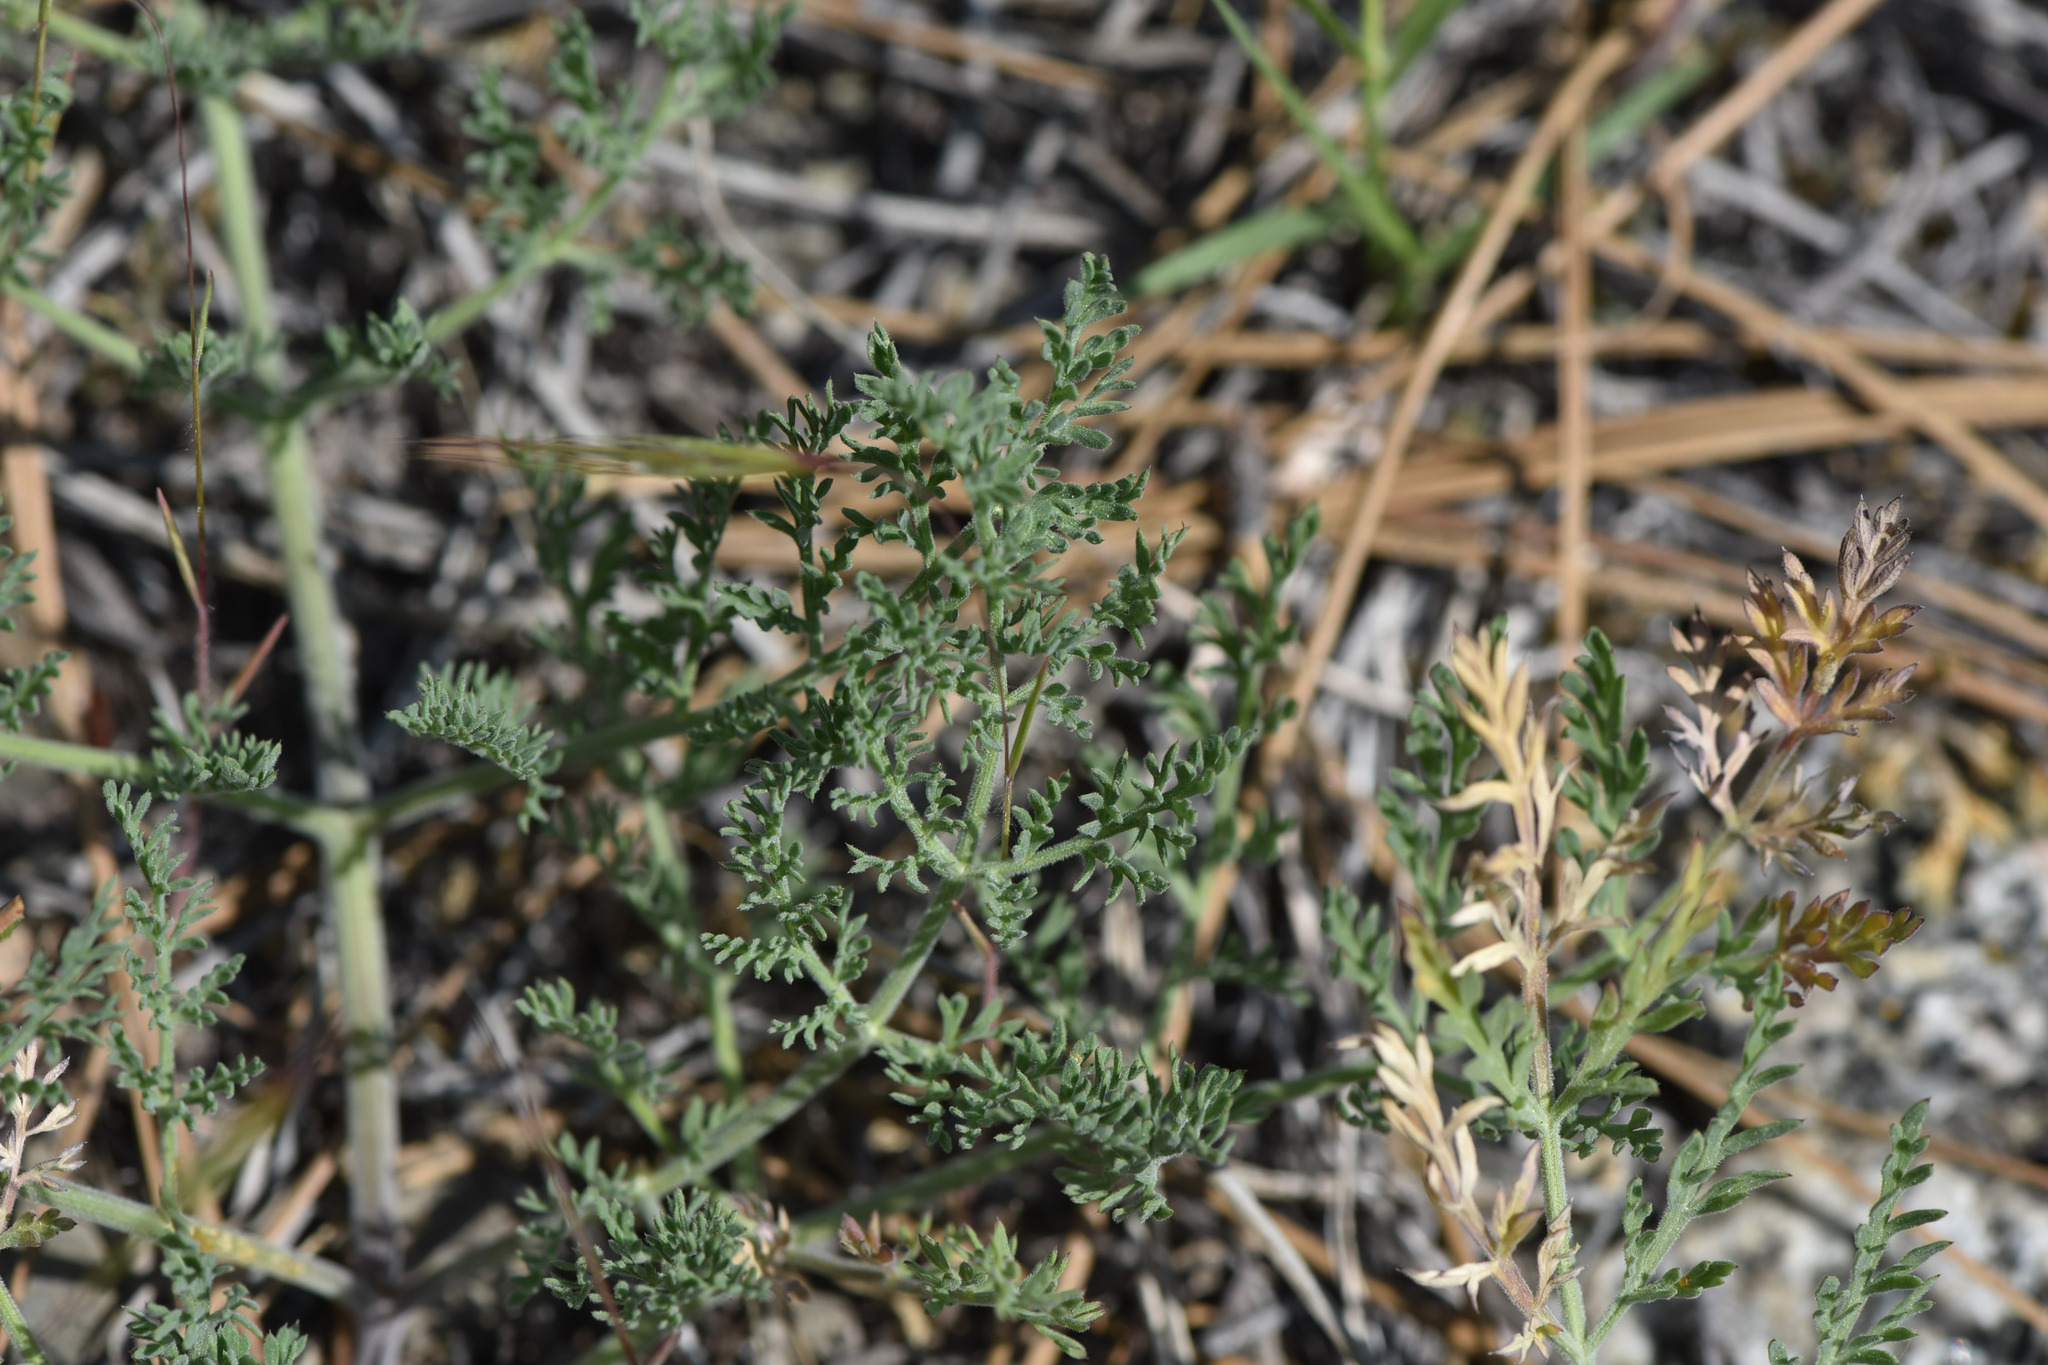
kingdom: Plantae
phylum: Tracheophyta
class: Magnoliopsida
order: Apiales
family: Apiaceae
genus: Lomatium
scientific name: Lomatium macrocarpum
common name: Big-seed biscuitroot
